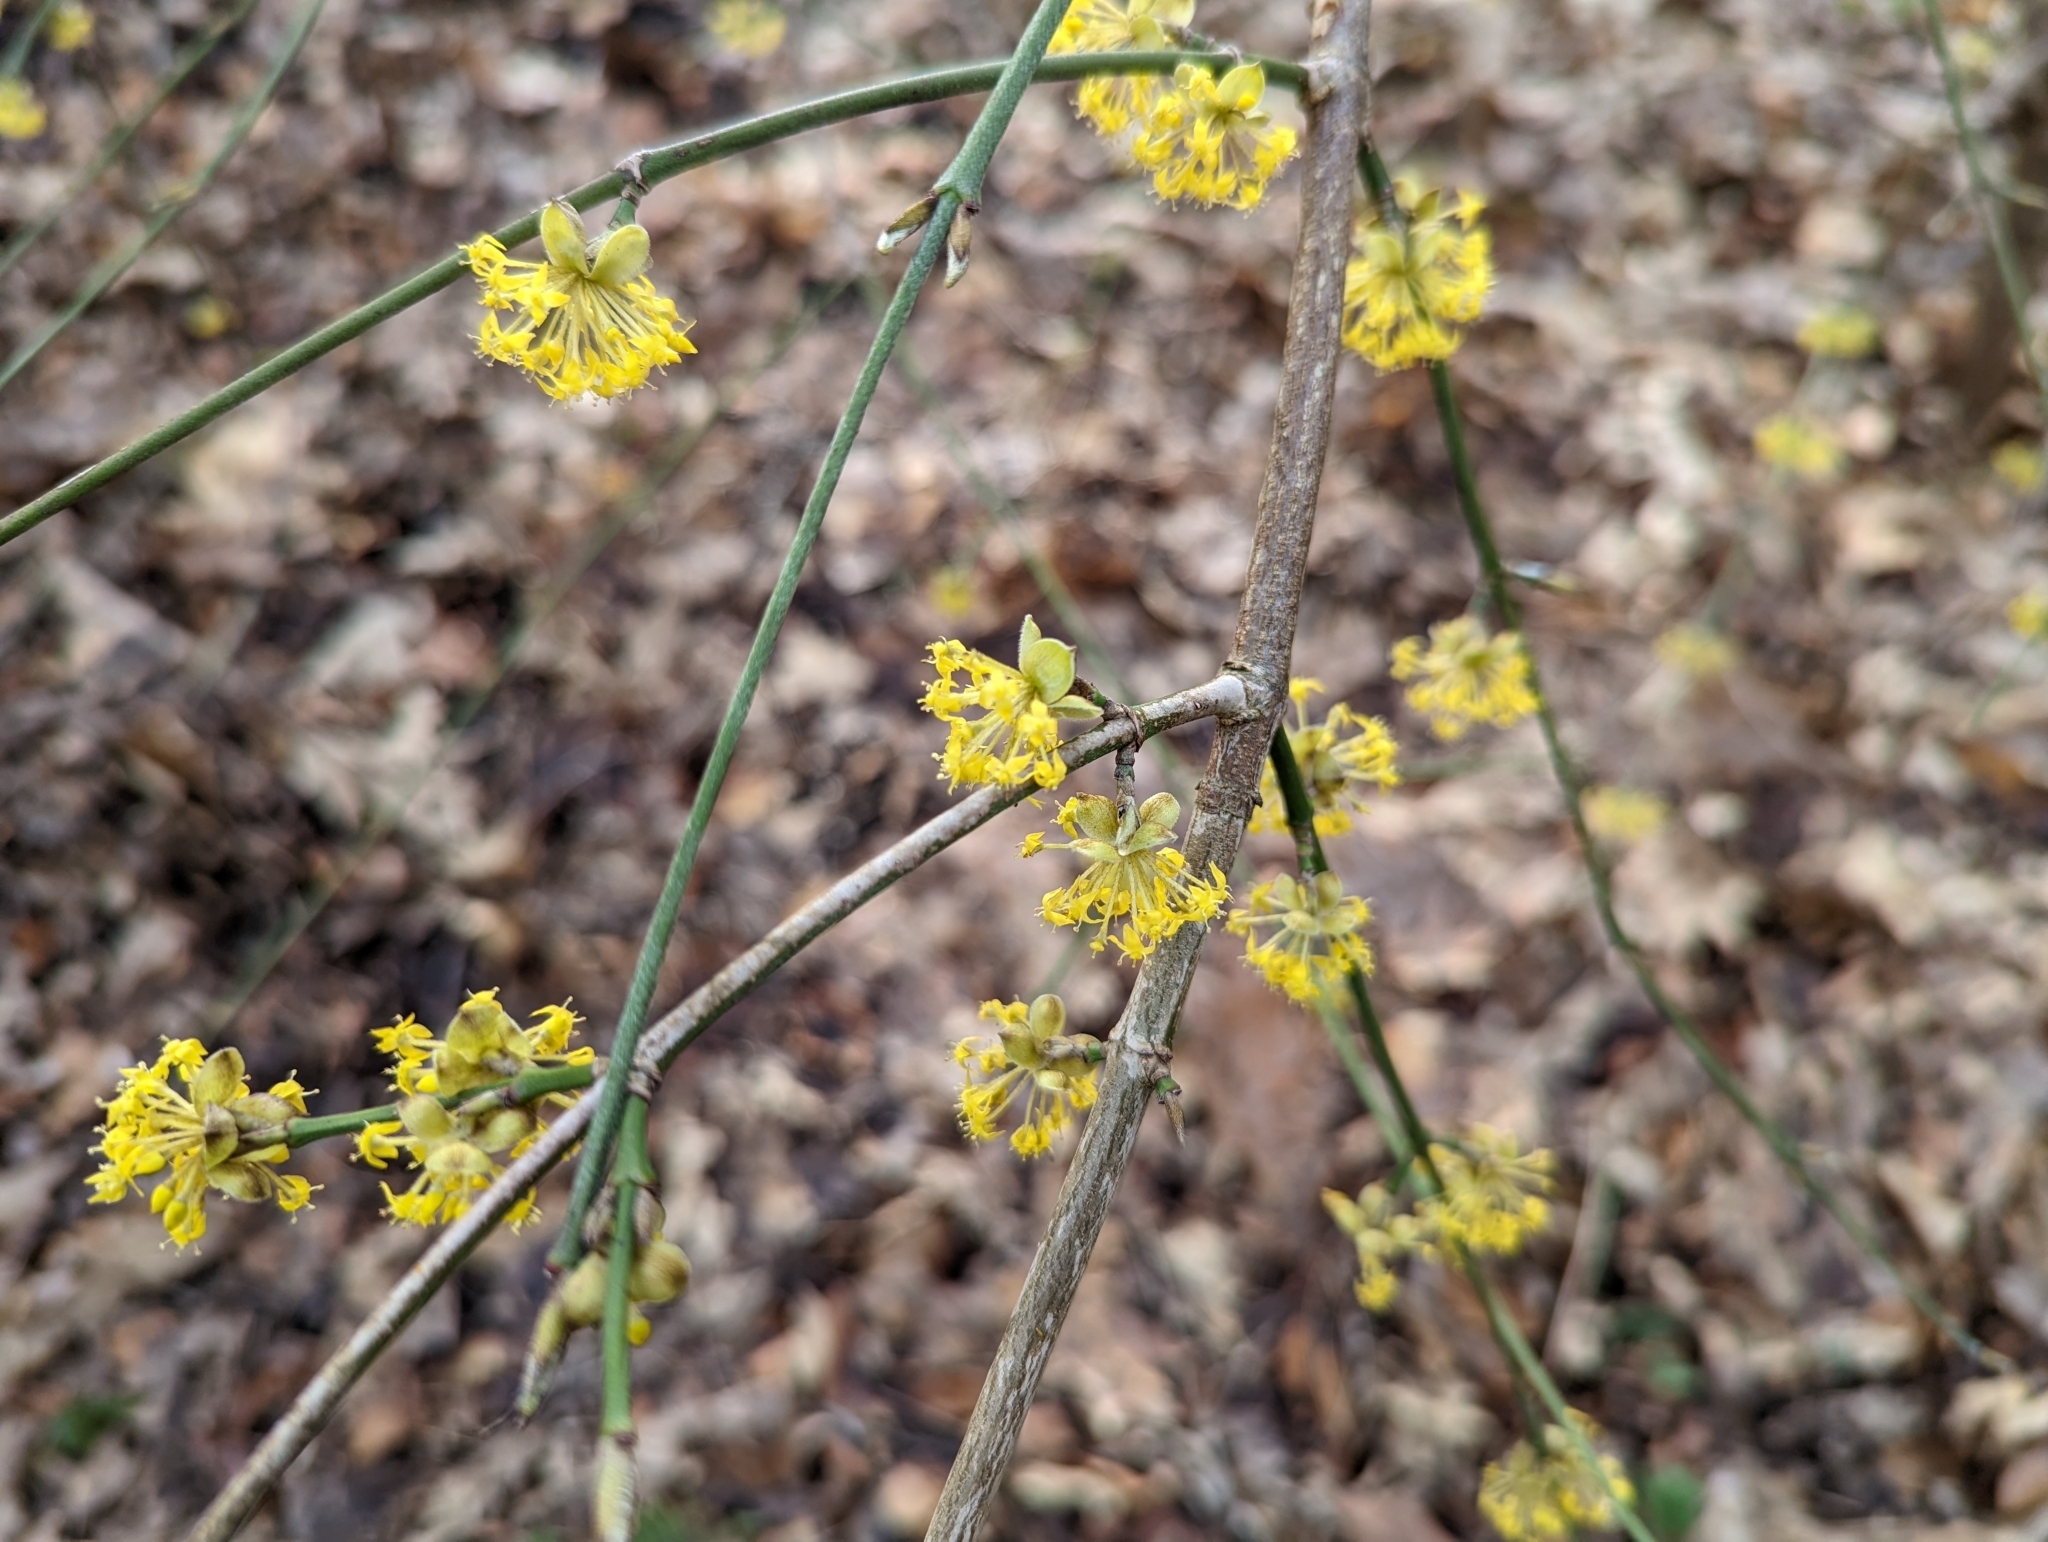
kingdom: Plantae
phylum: Tracheophyta
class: Magnoliopsida
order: Cornales
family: Cornaceae
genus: Cornus
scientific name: Cornus mas
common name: Cornelian-cherry
